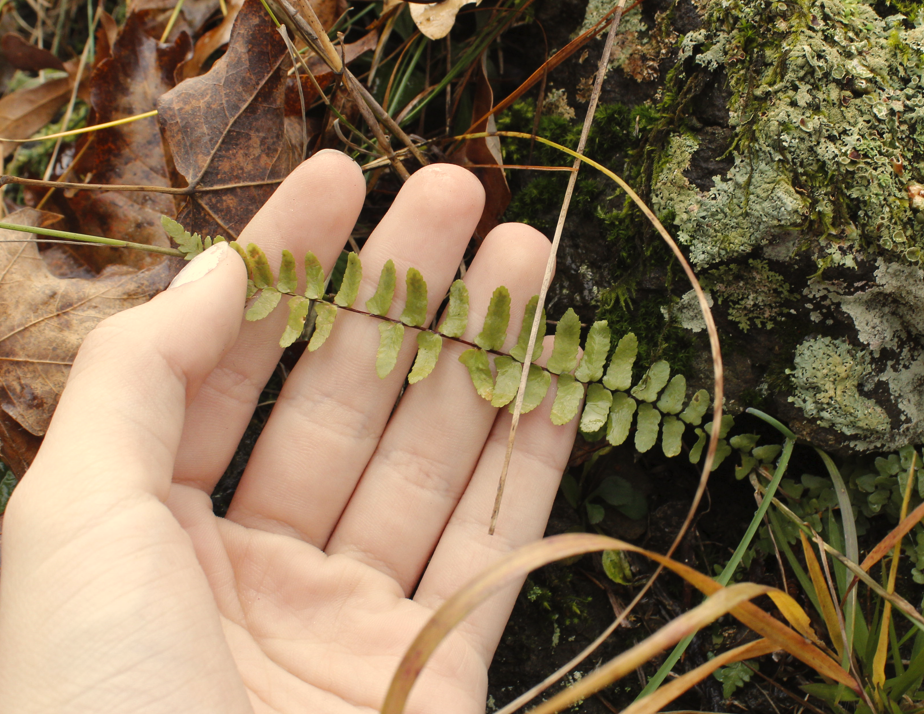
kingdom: Plantae
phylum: Tracheophyta
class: Polypodiopsida
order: Polypodiales
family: Aspleniaceae
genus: Asplenium
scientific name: Asplenium platyneuron
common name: Ebony spleenwort
